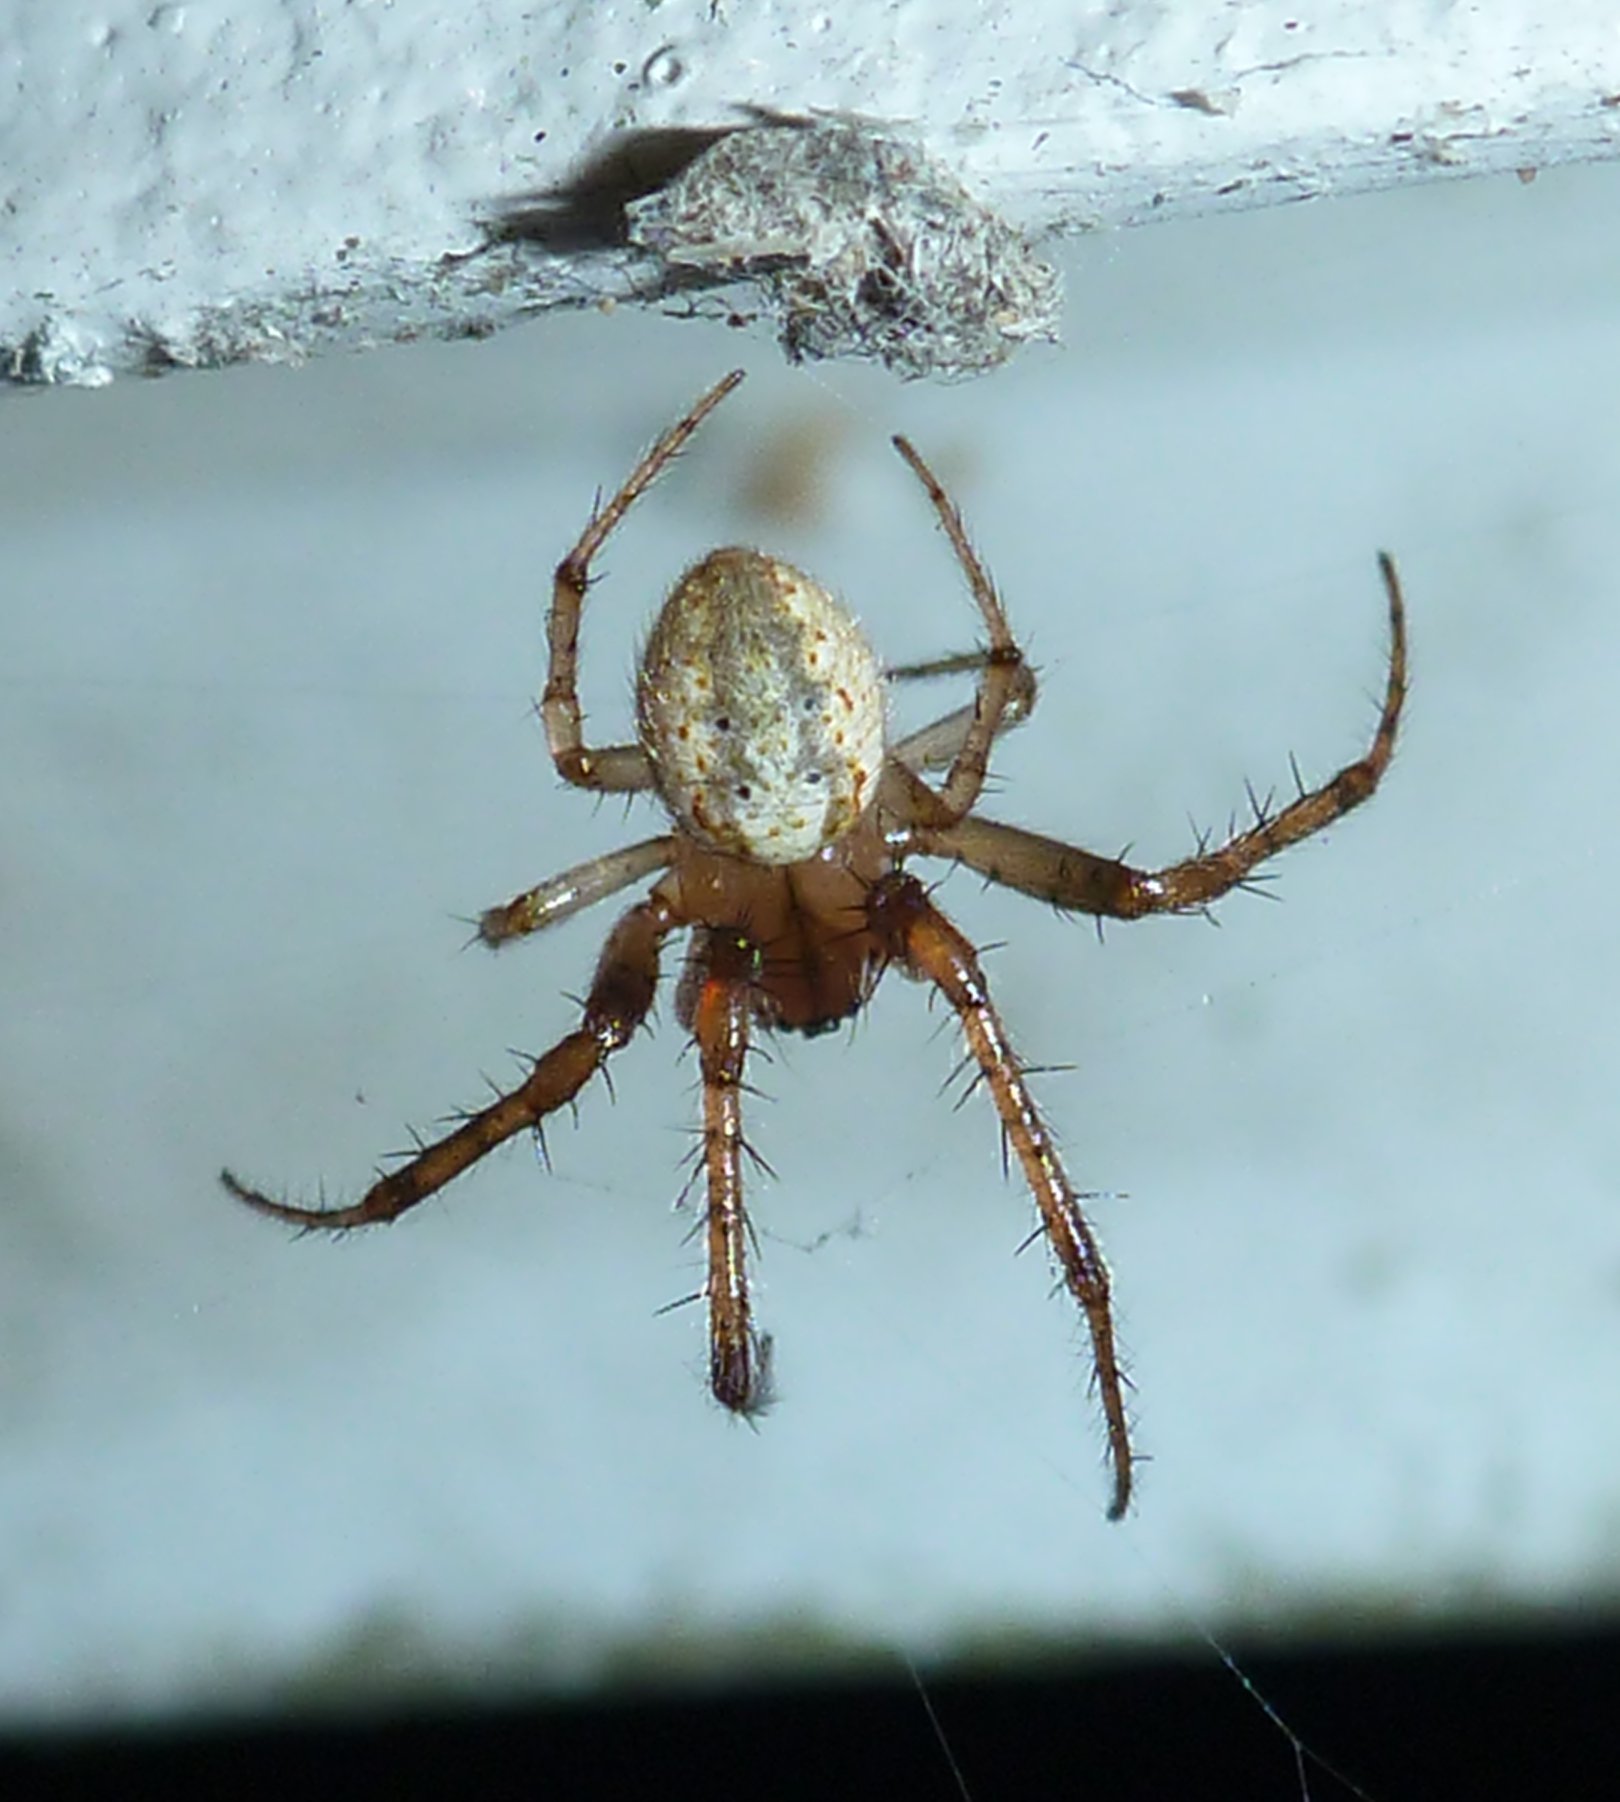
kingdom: Animalia
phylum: Arthropoda
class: Arachnida
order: Araneae
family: Araneidae
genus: Metazygia
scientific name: Metazygia zilloides
